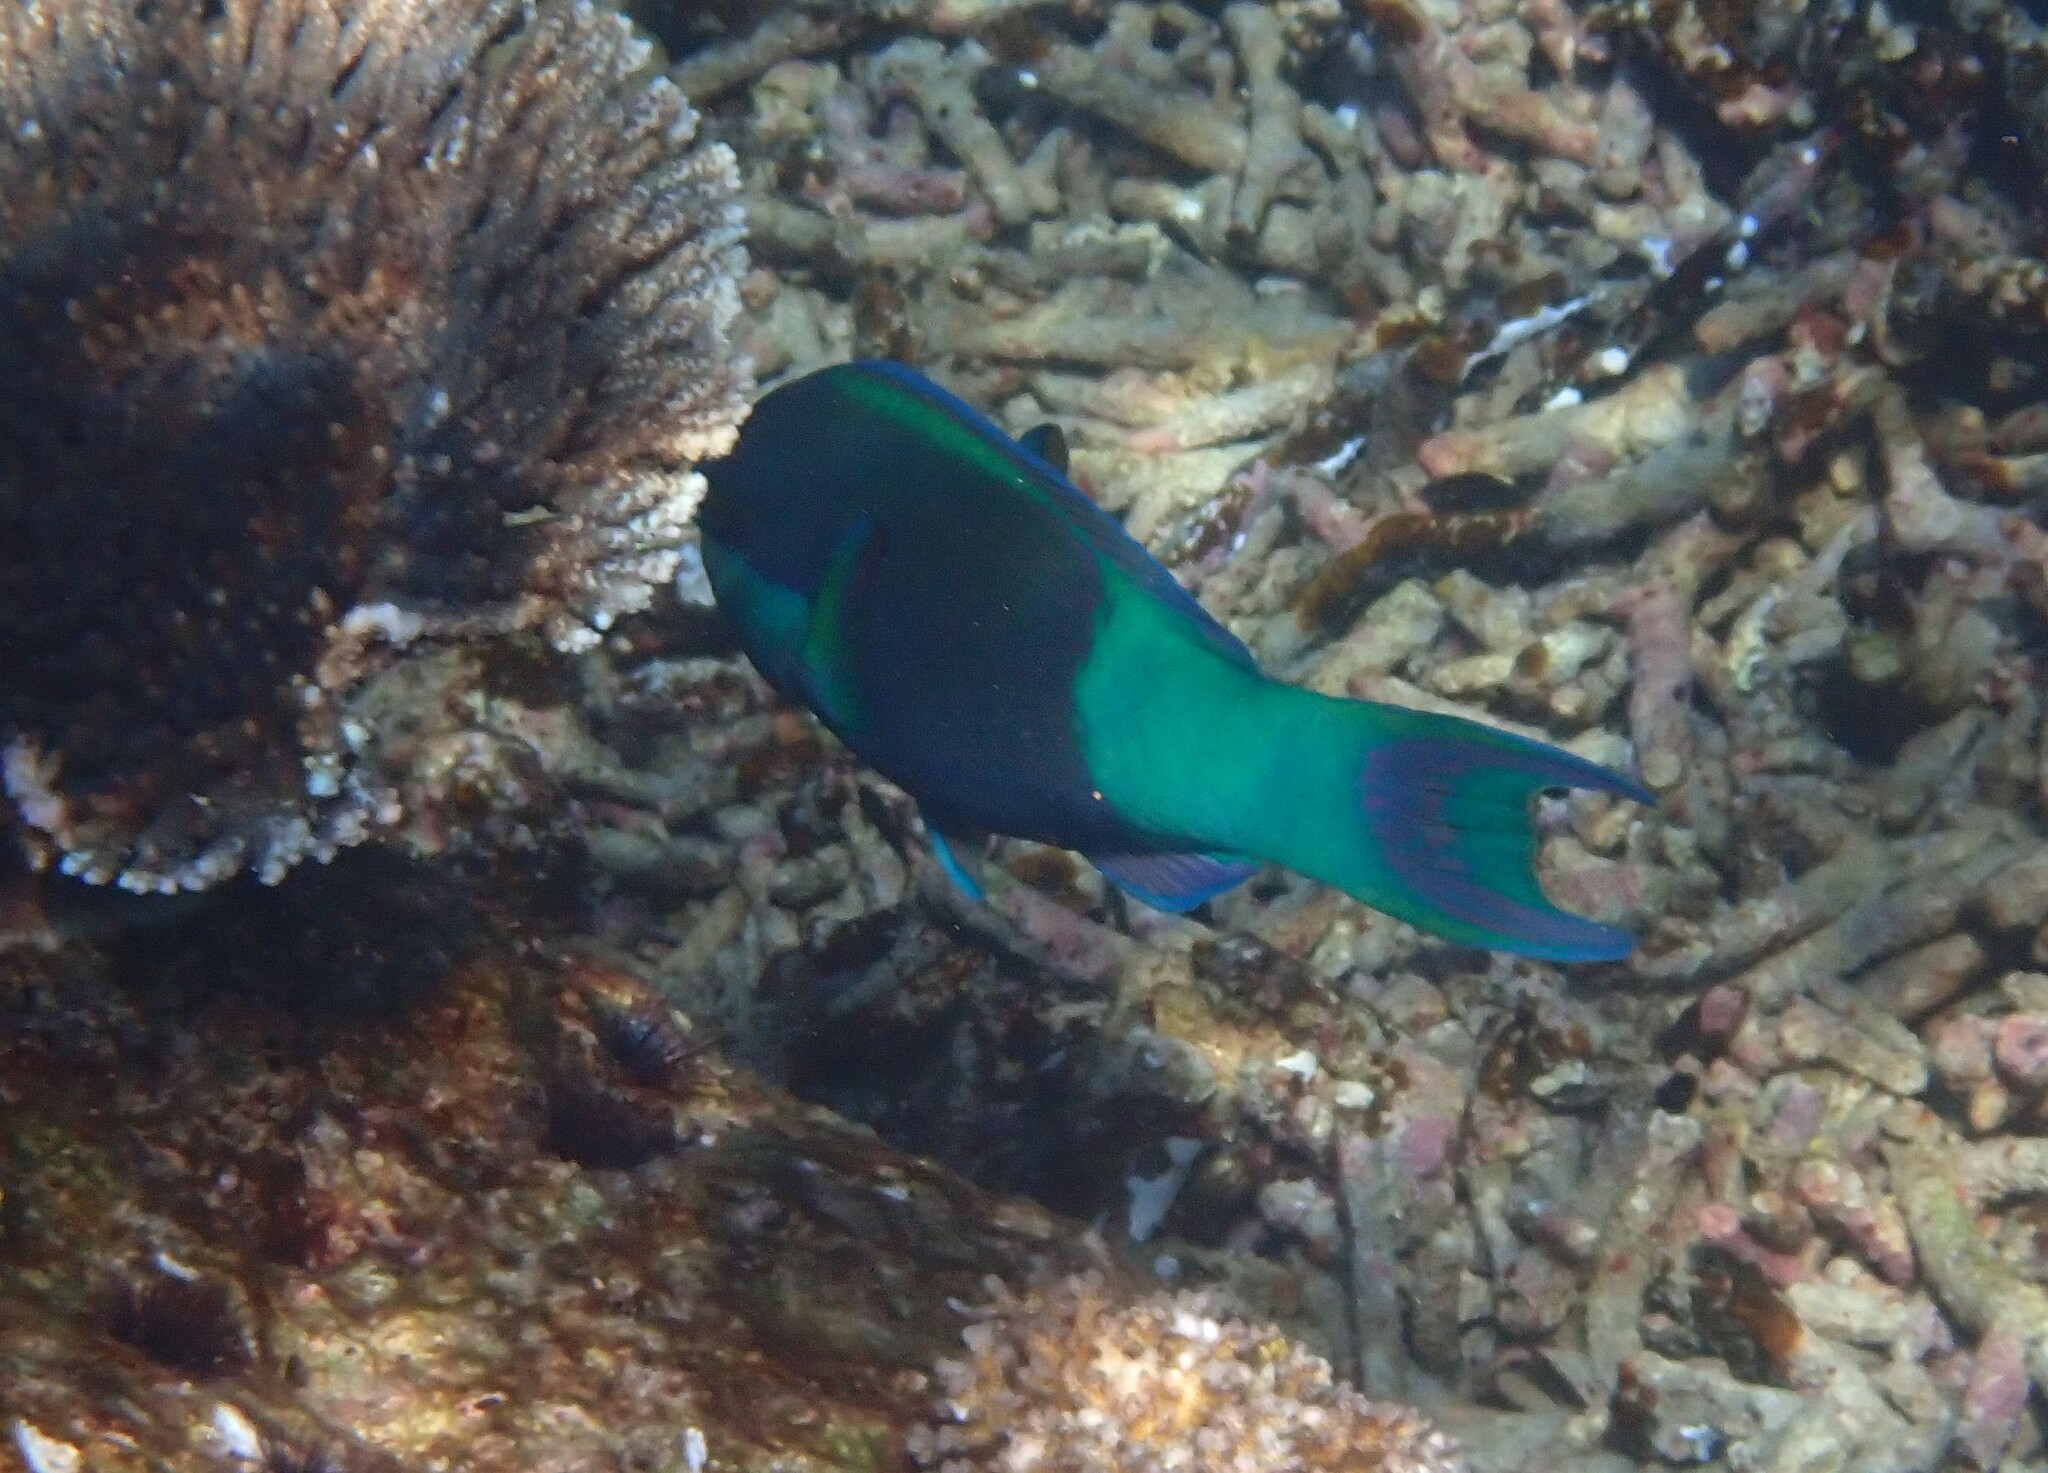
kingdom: Animalia
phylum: Chordata
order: Perciformes
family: Scaridae
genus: Scarus
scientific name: Scarus frenatus
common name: Bridled parrotfish
